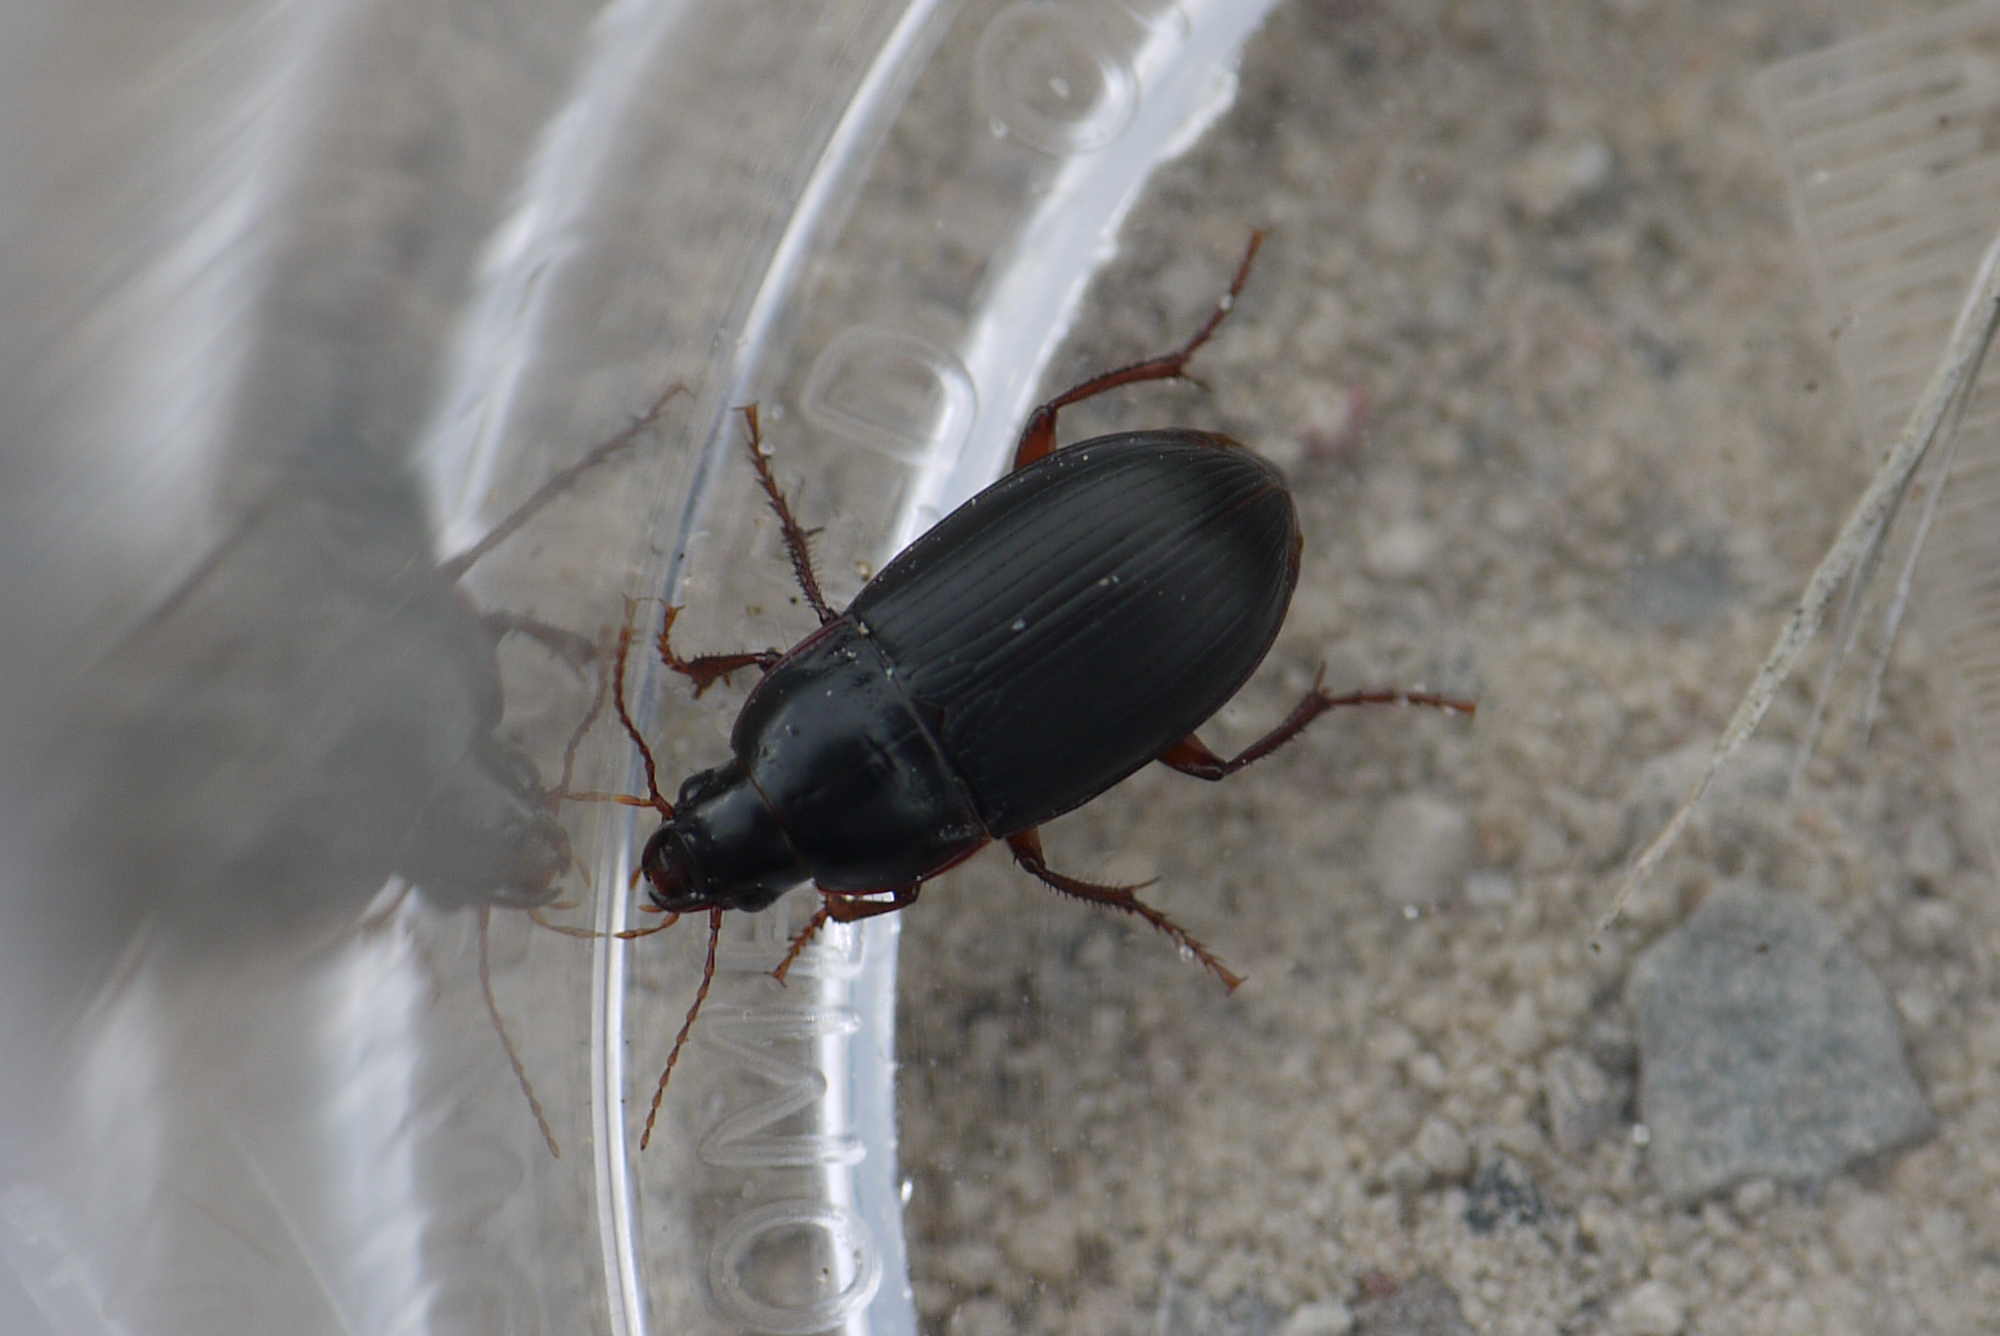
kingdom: Animalia
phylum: Arthropoda
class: Insecta
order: Coleoptera
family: Carabidae
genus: Amara
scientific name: Amara equestris
